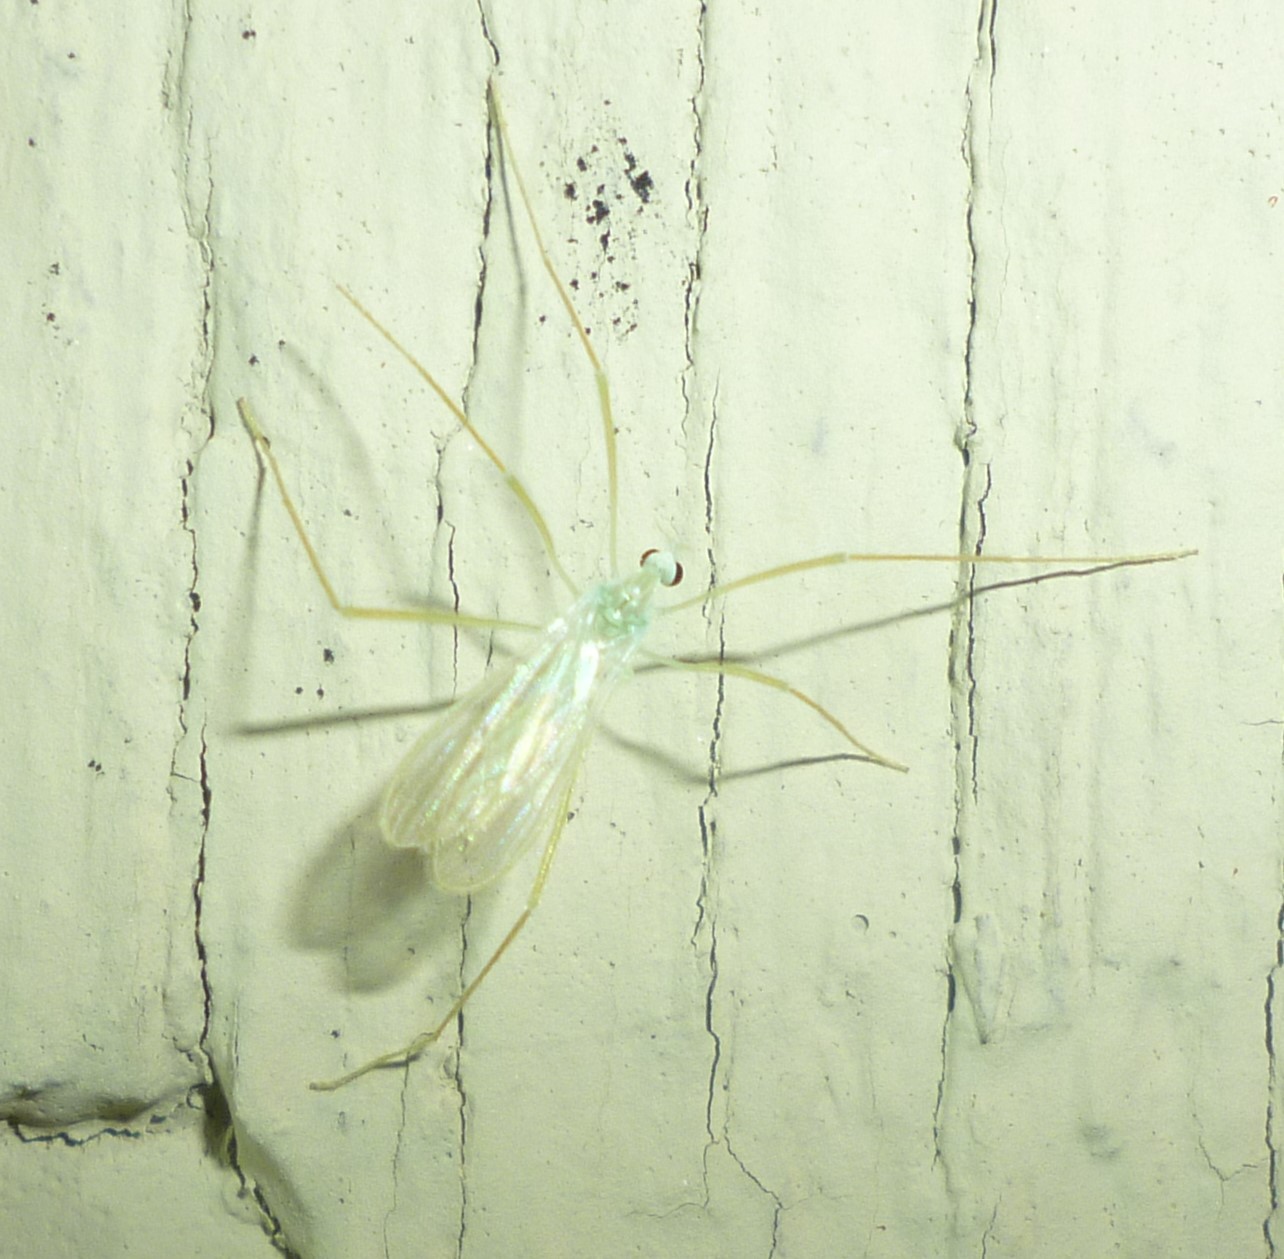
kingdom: Animalia
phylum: Arthropoda
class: Insecta
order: Diptera
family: Limoniidae
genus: Erioptera
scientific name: Erioptera
